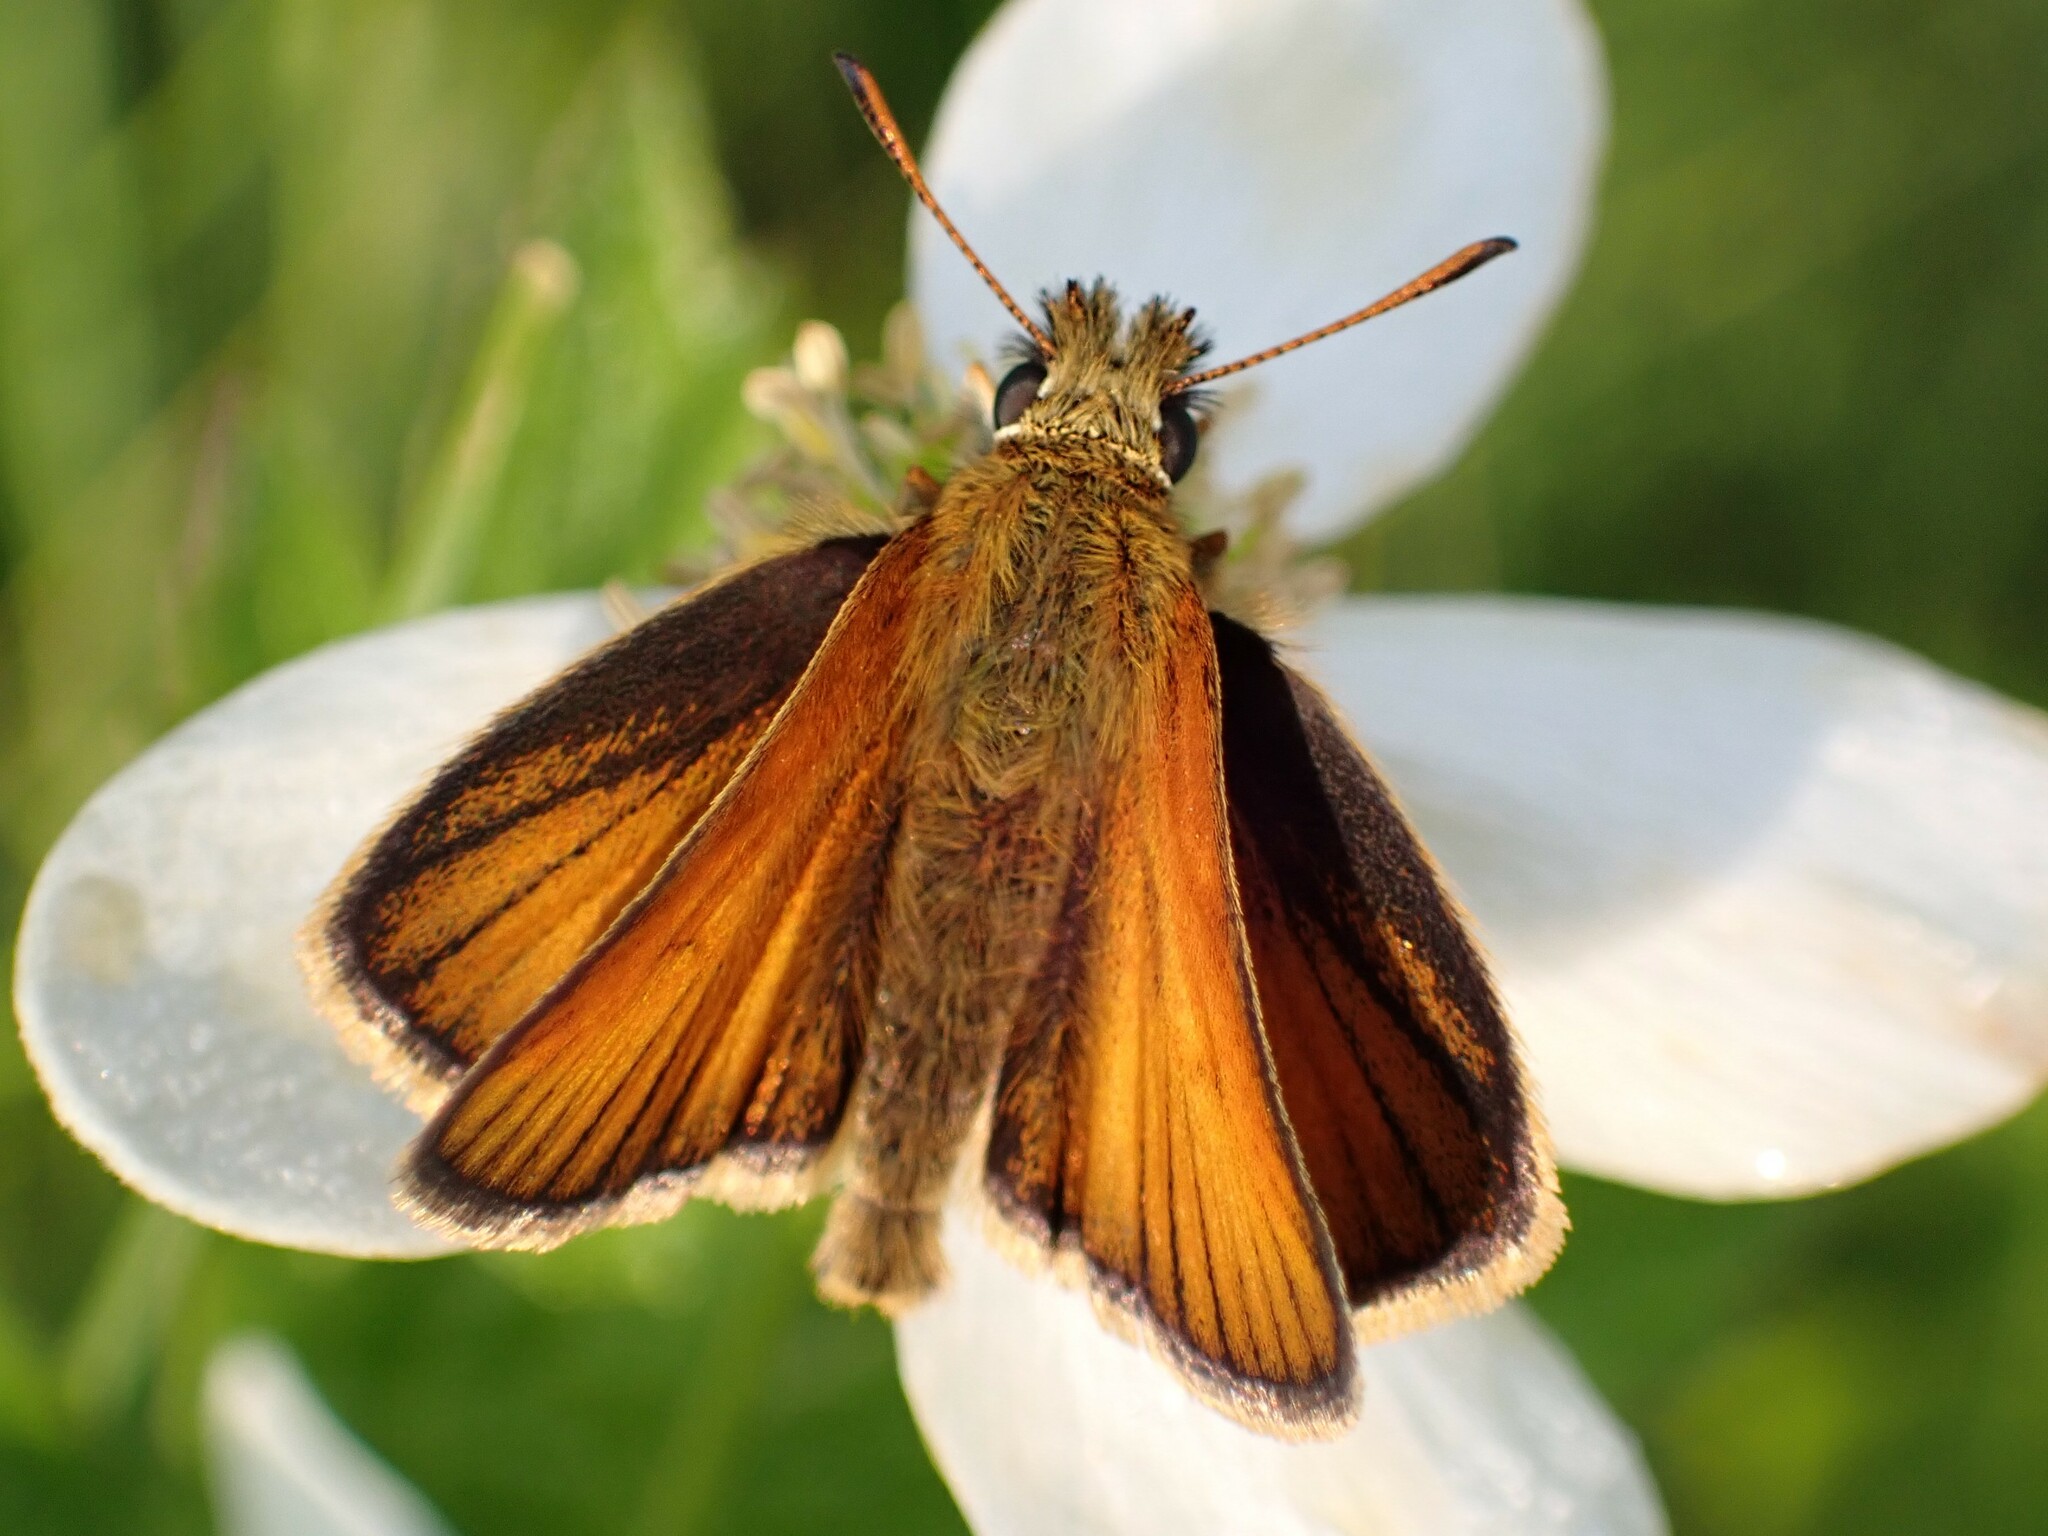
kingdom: Animalia
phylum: Arthropoda
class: Insecta
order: Lepidoptera
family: Hesperiidae
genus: Thymelicus
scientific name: Thymelicus lineola
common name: Essex skipper
